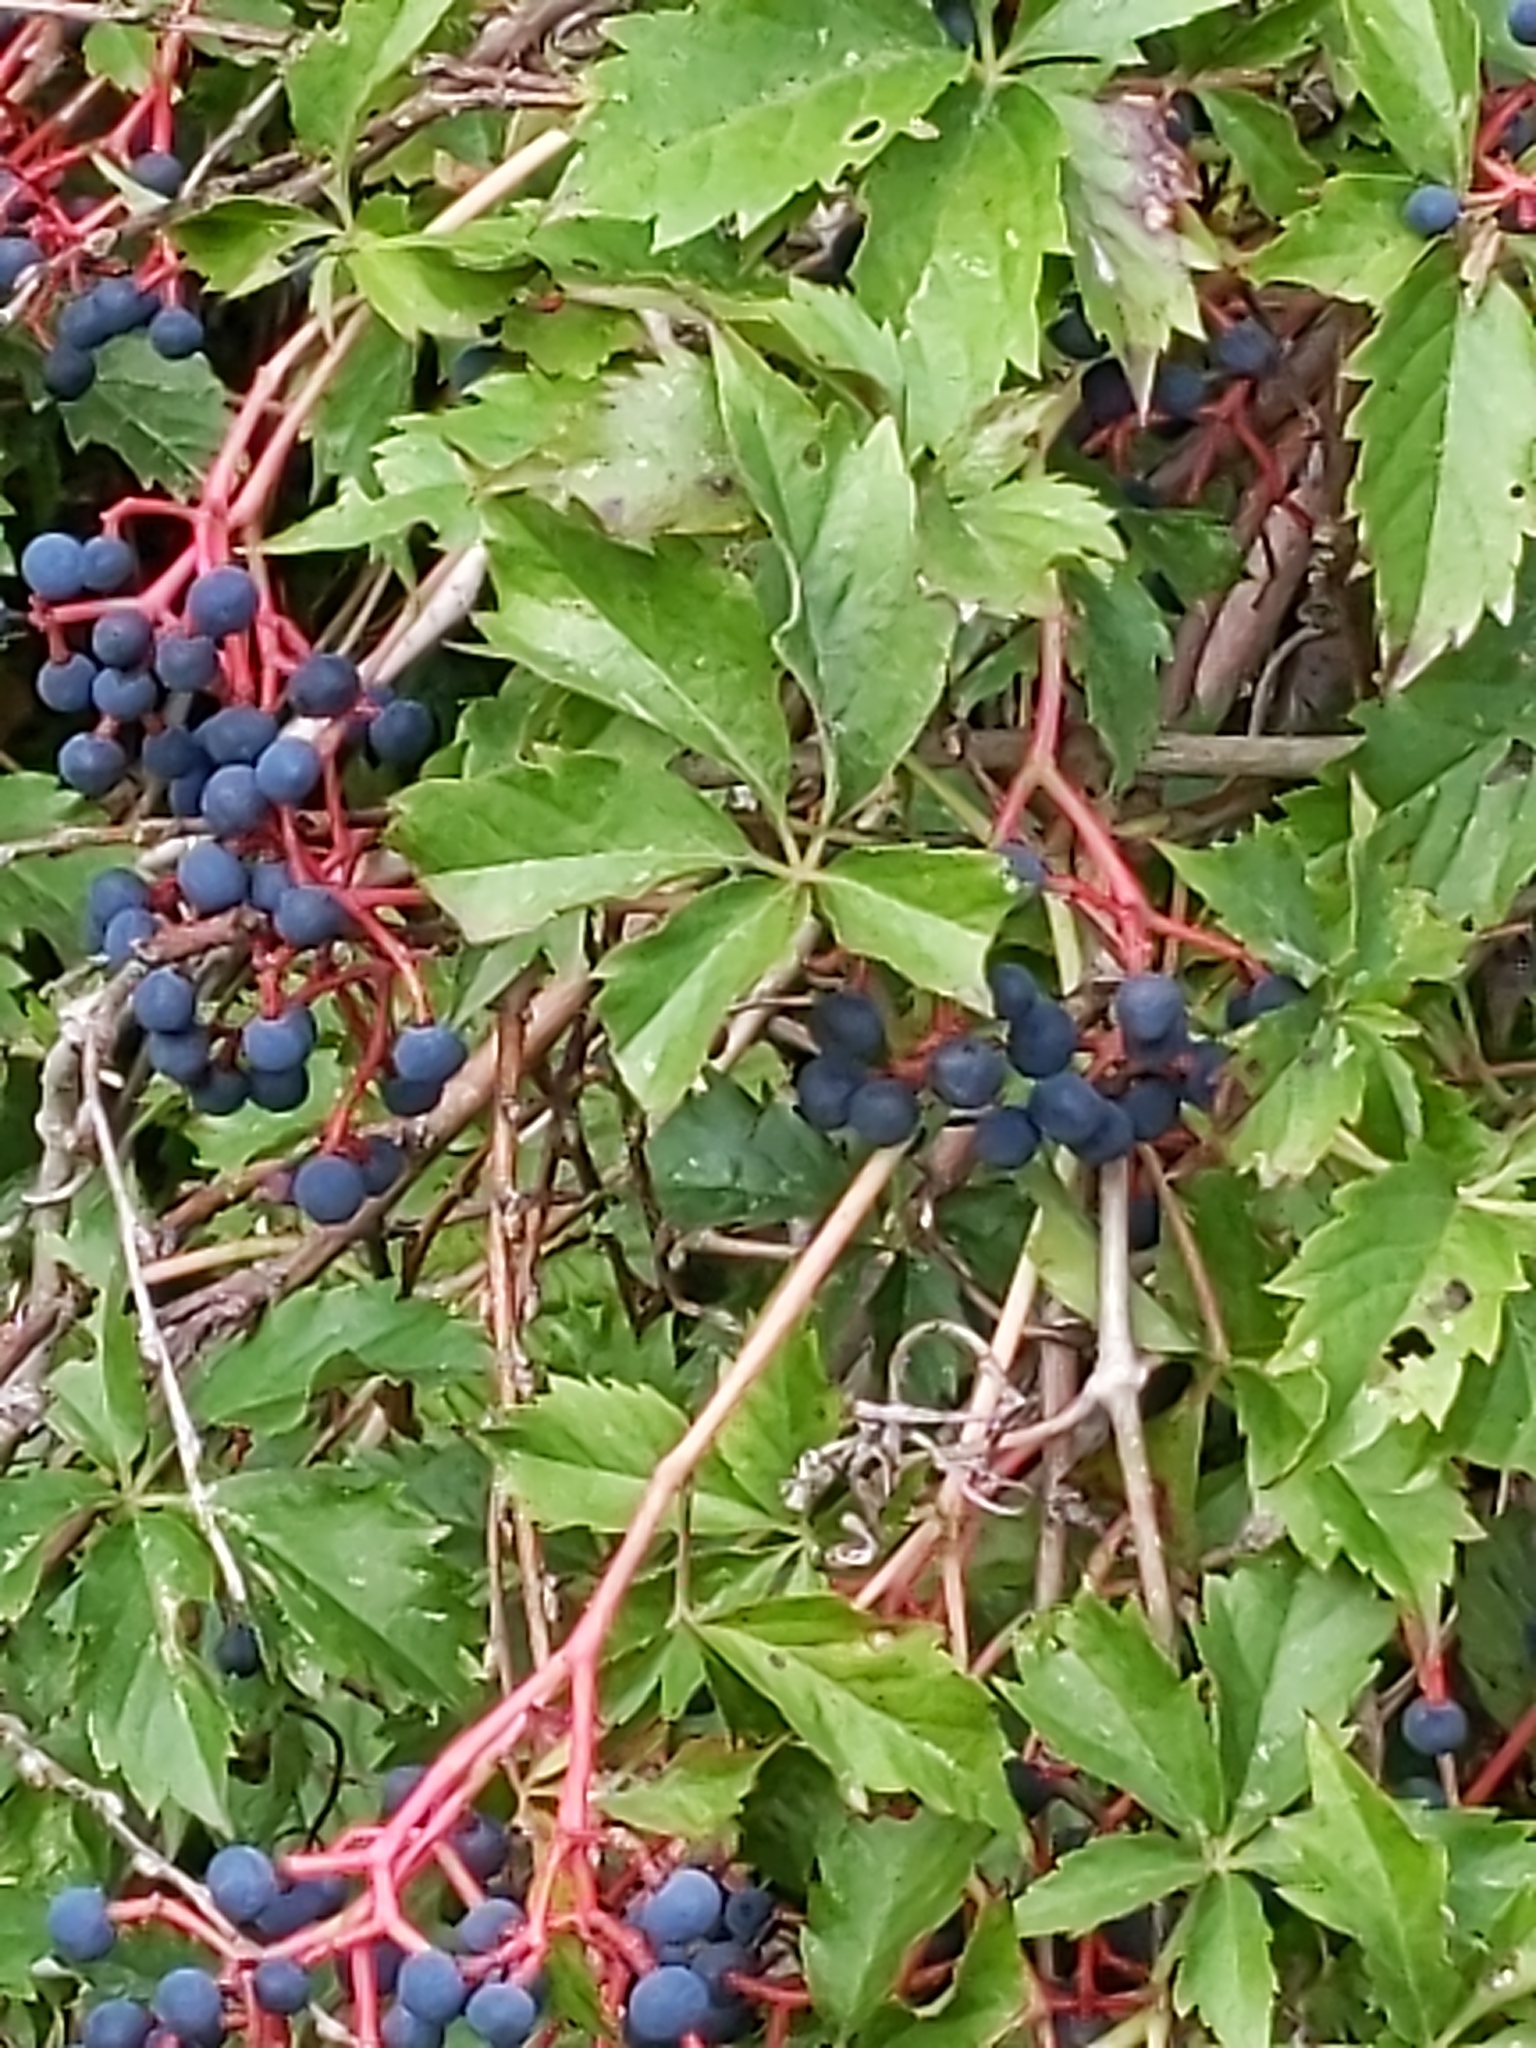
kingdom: Plantae
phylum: Tracheophyta
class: Magnoliopsida
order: Vitales
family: Vitaceae
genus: Parthenocissus
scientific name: Parthenocissus quinquefolia
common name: Virginia-creeper
